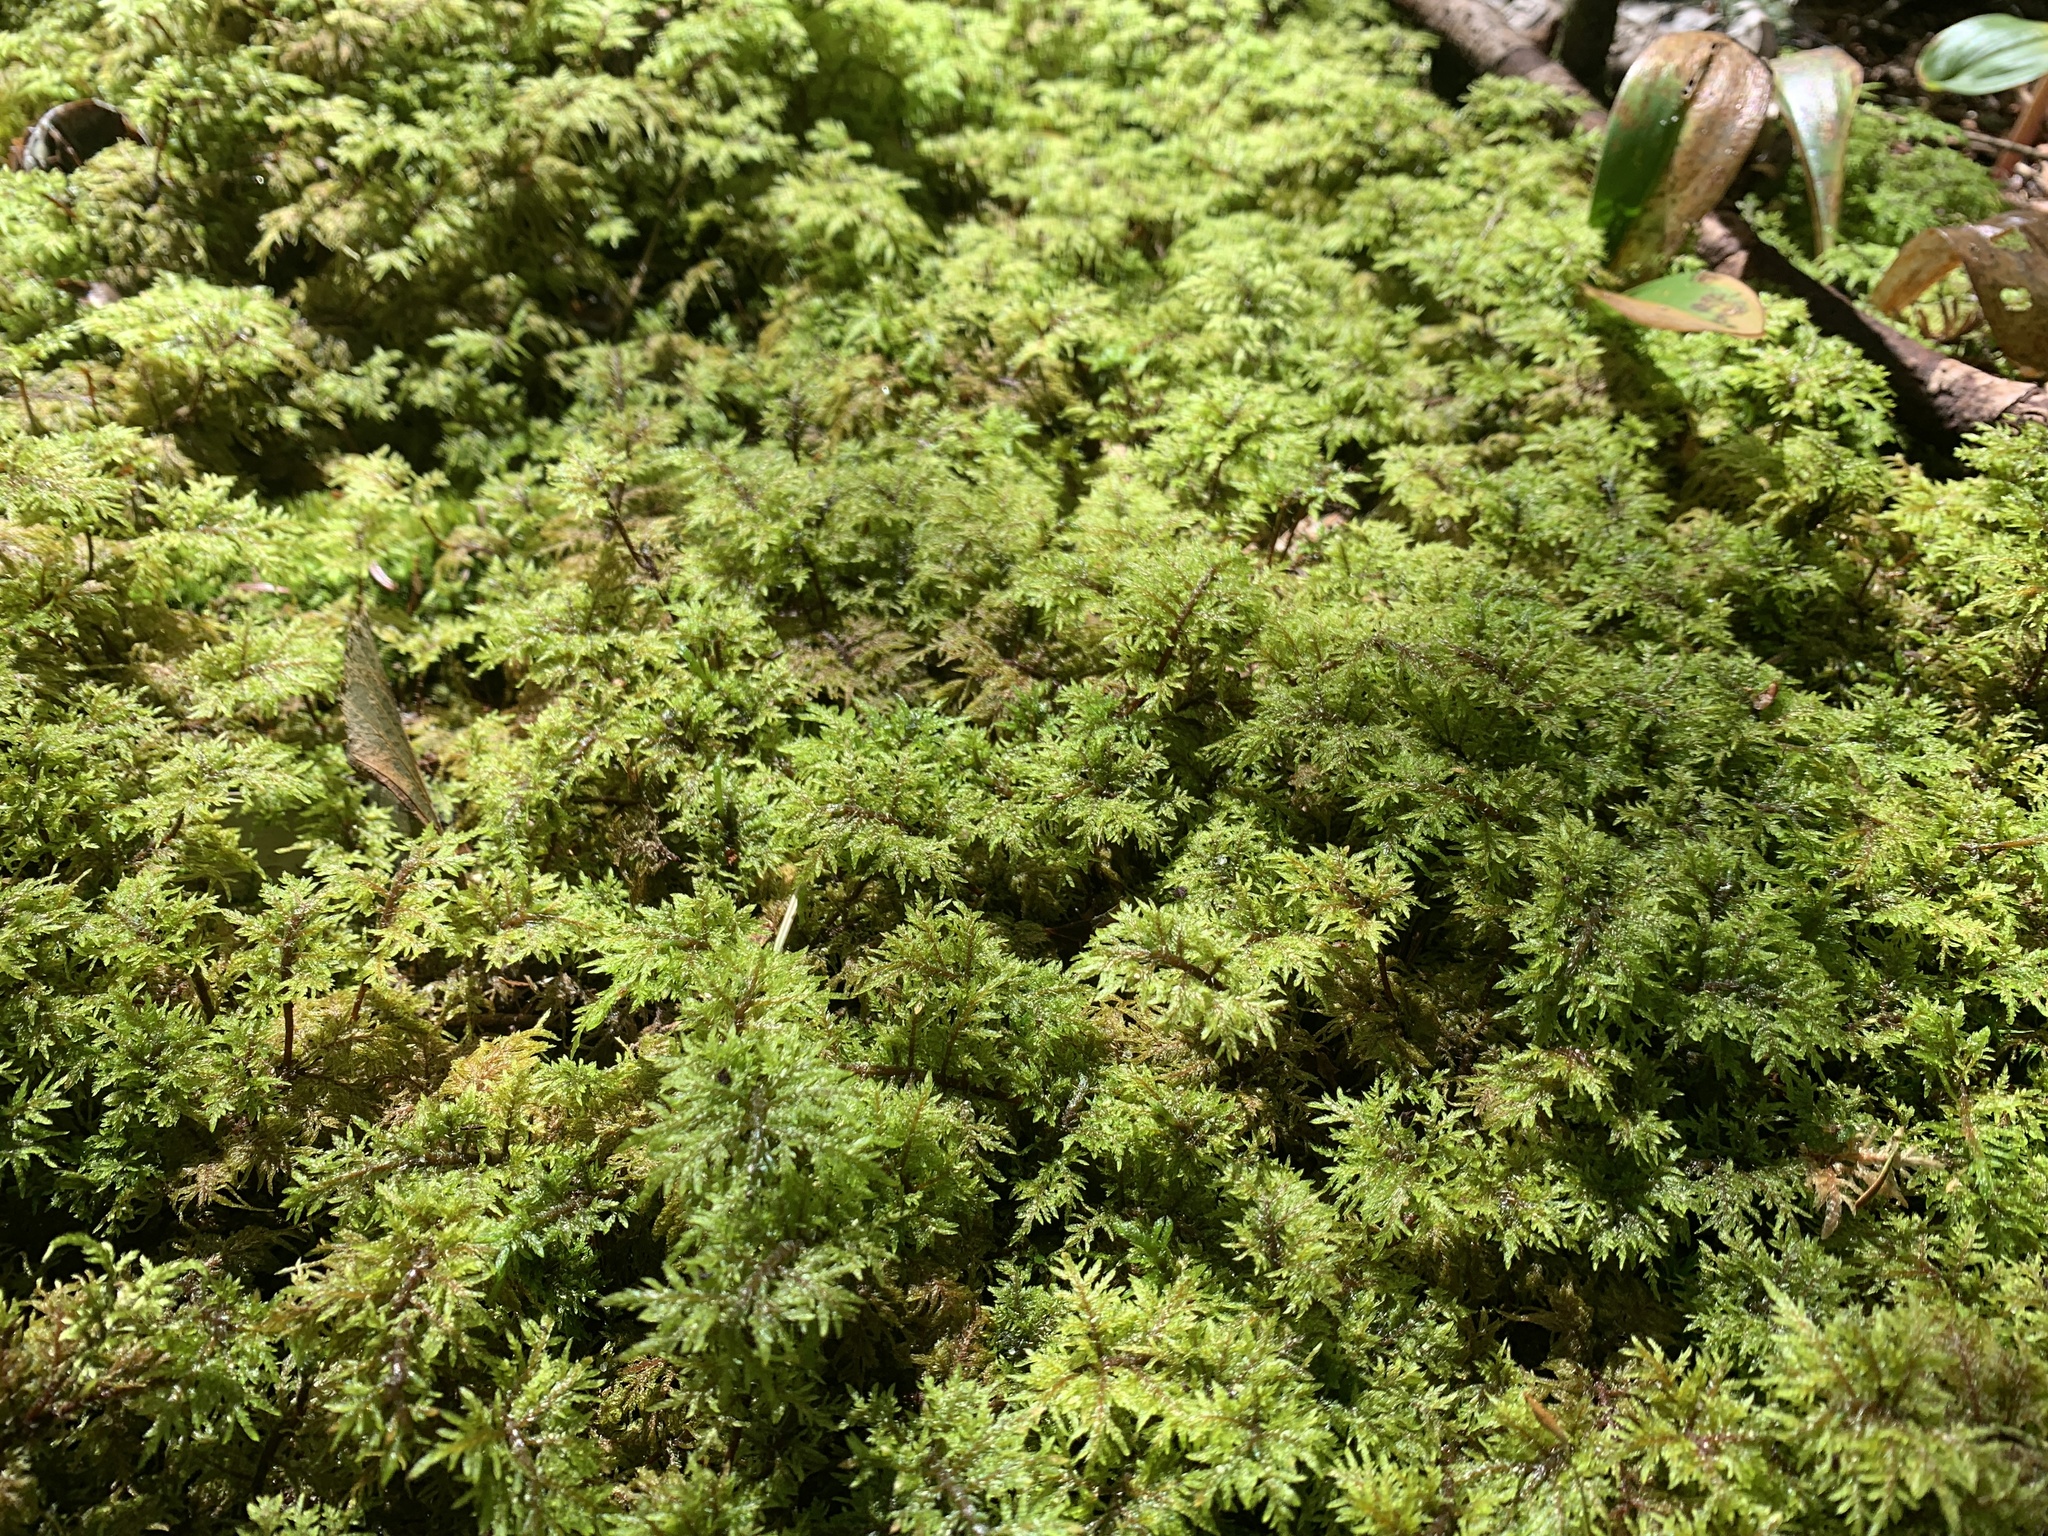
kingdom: Plantae
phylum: Bryophyta
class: Bryopsida
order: Hypnales
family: Hylocomiaceae
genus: Hylocomium
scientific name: Hylocomium splendens
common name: Stairstep moss
